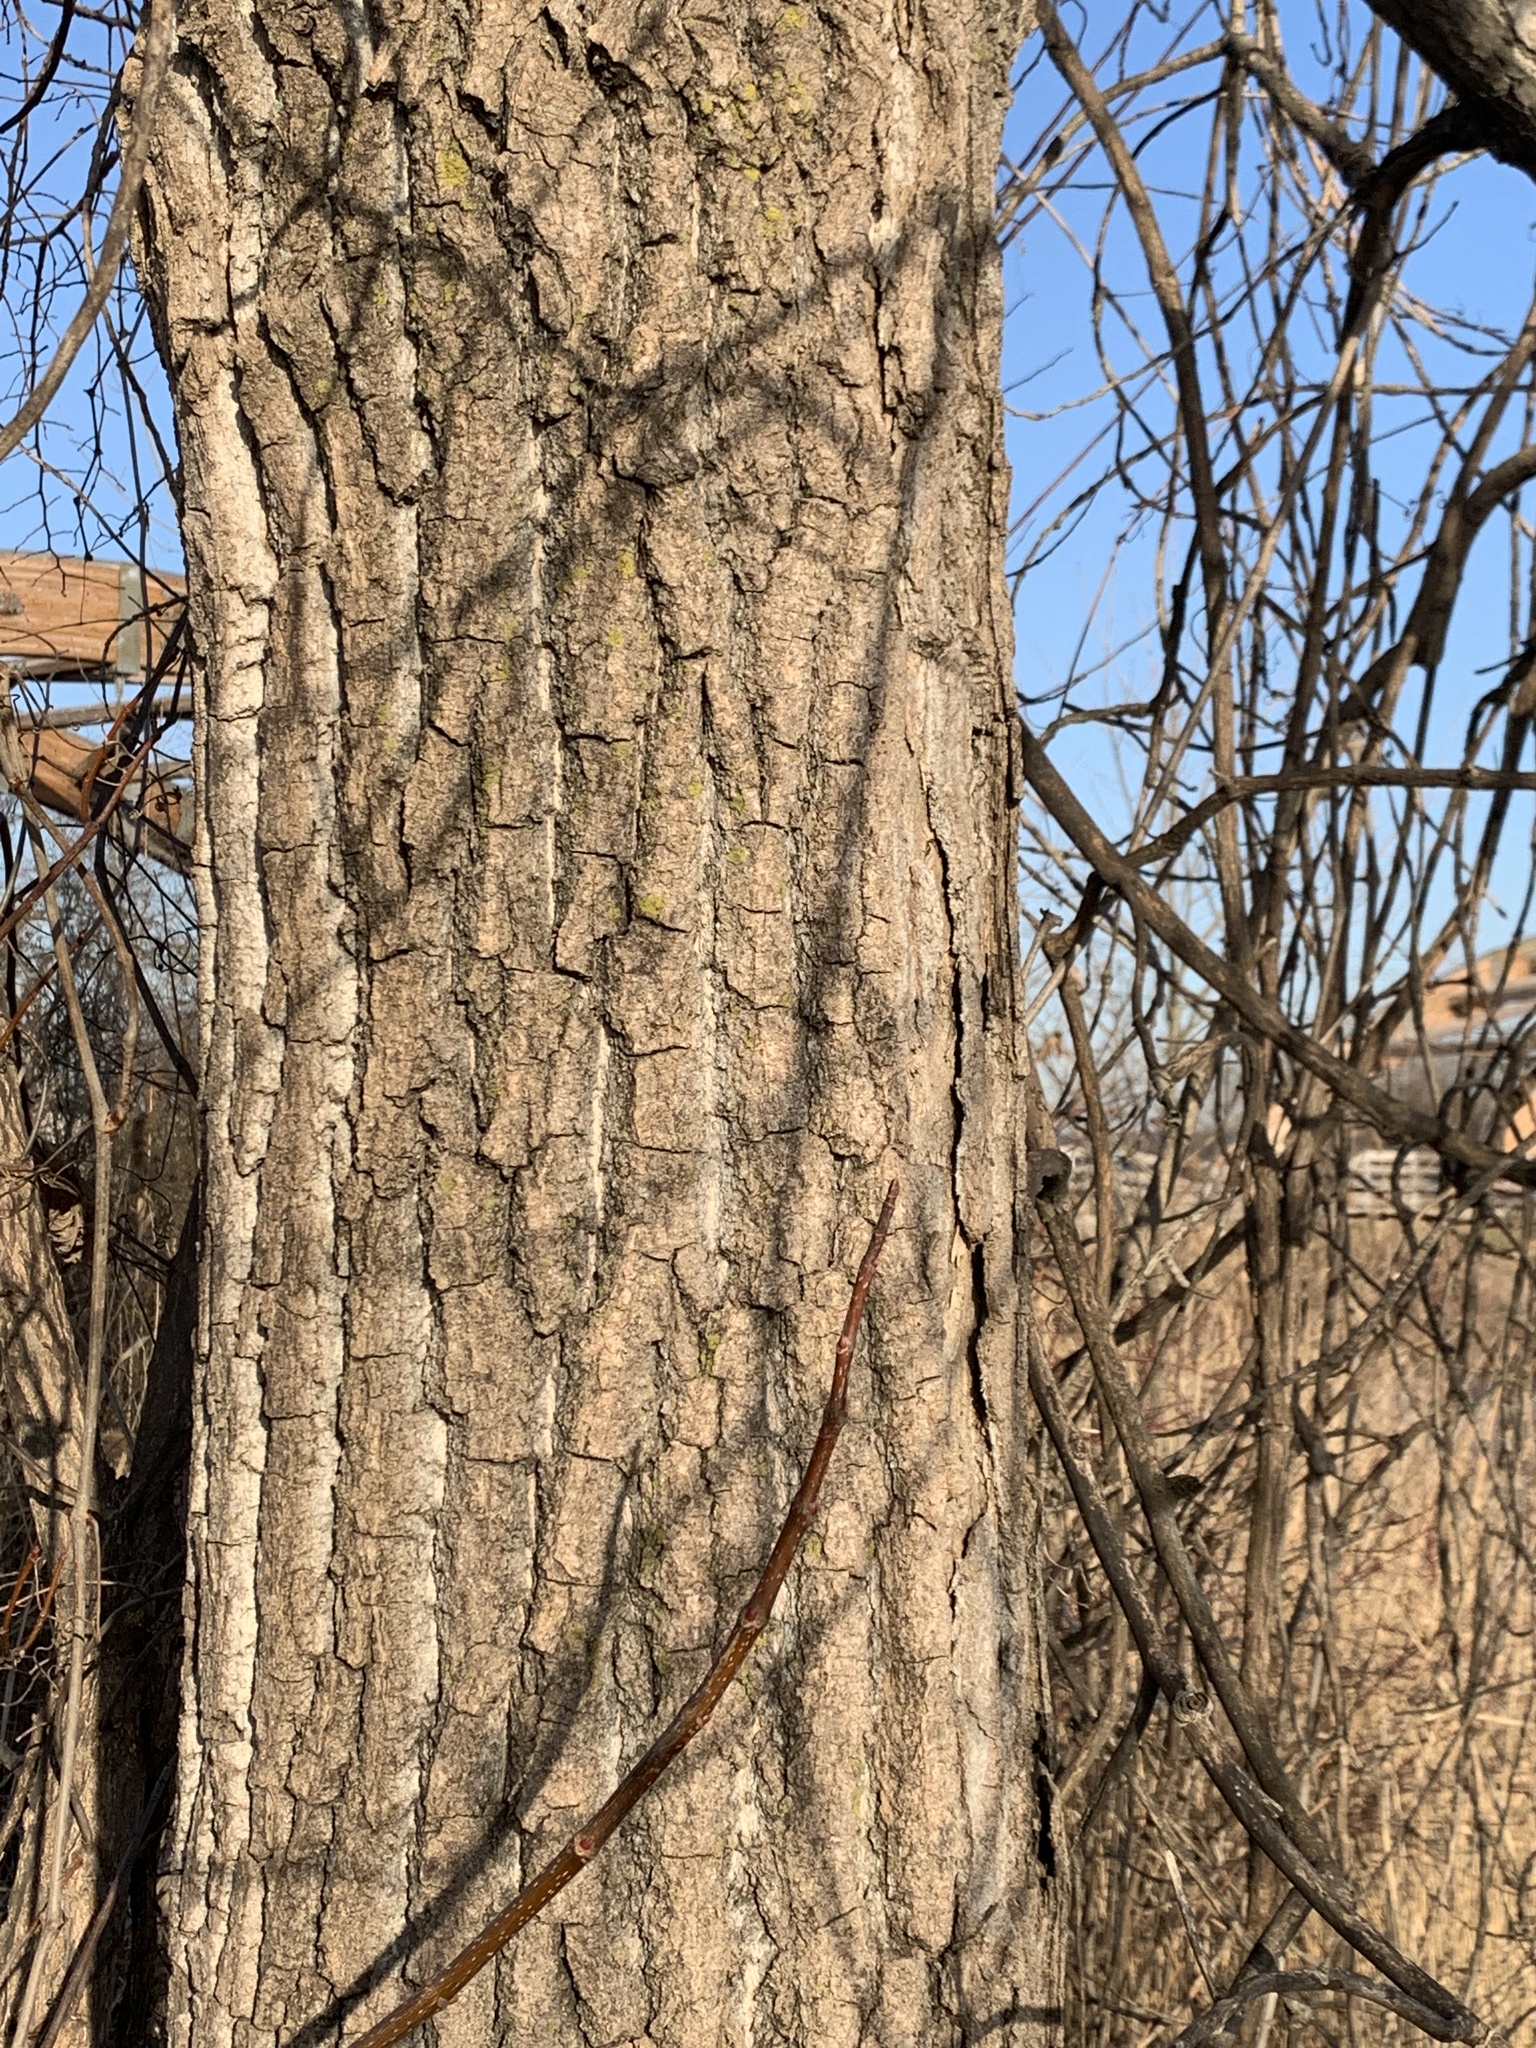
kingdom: Plantae
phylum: Tracheophyta
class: Magnoliopsida
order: Malpighiales
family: Salicaceae
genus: Populus
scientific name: Populus deltoides
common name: Eastern cottonwood
